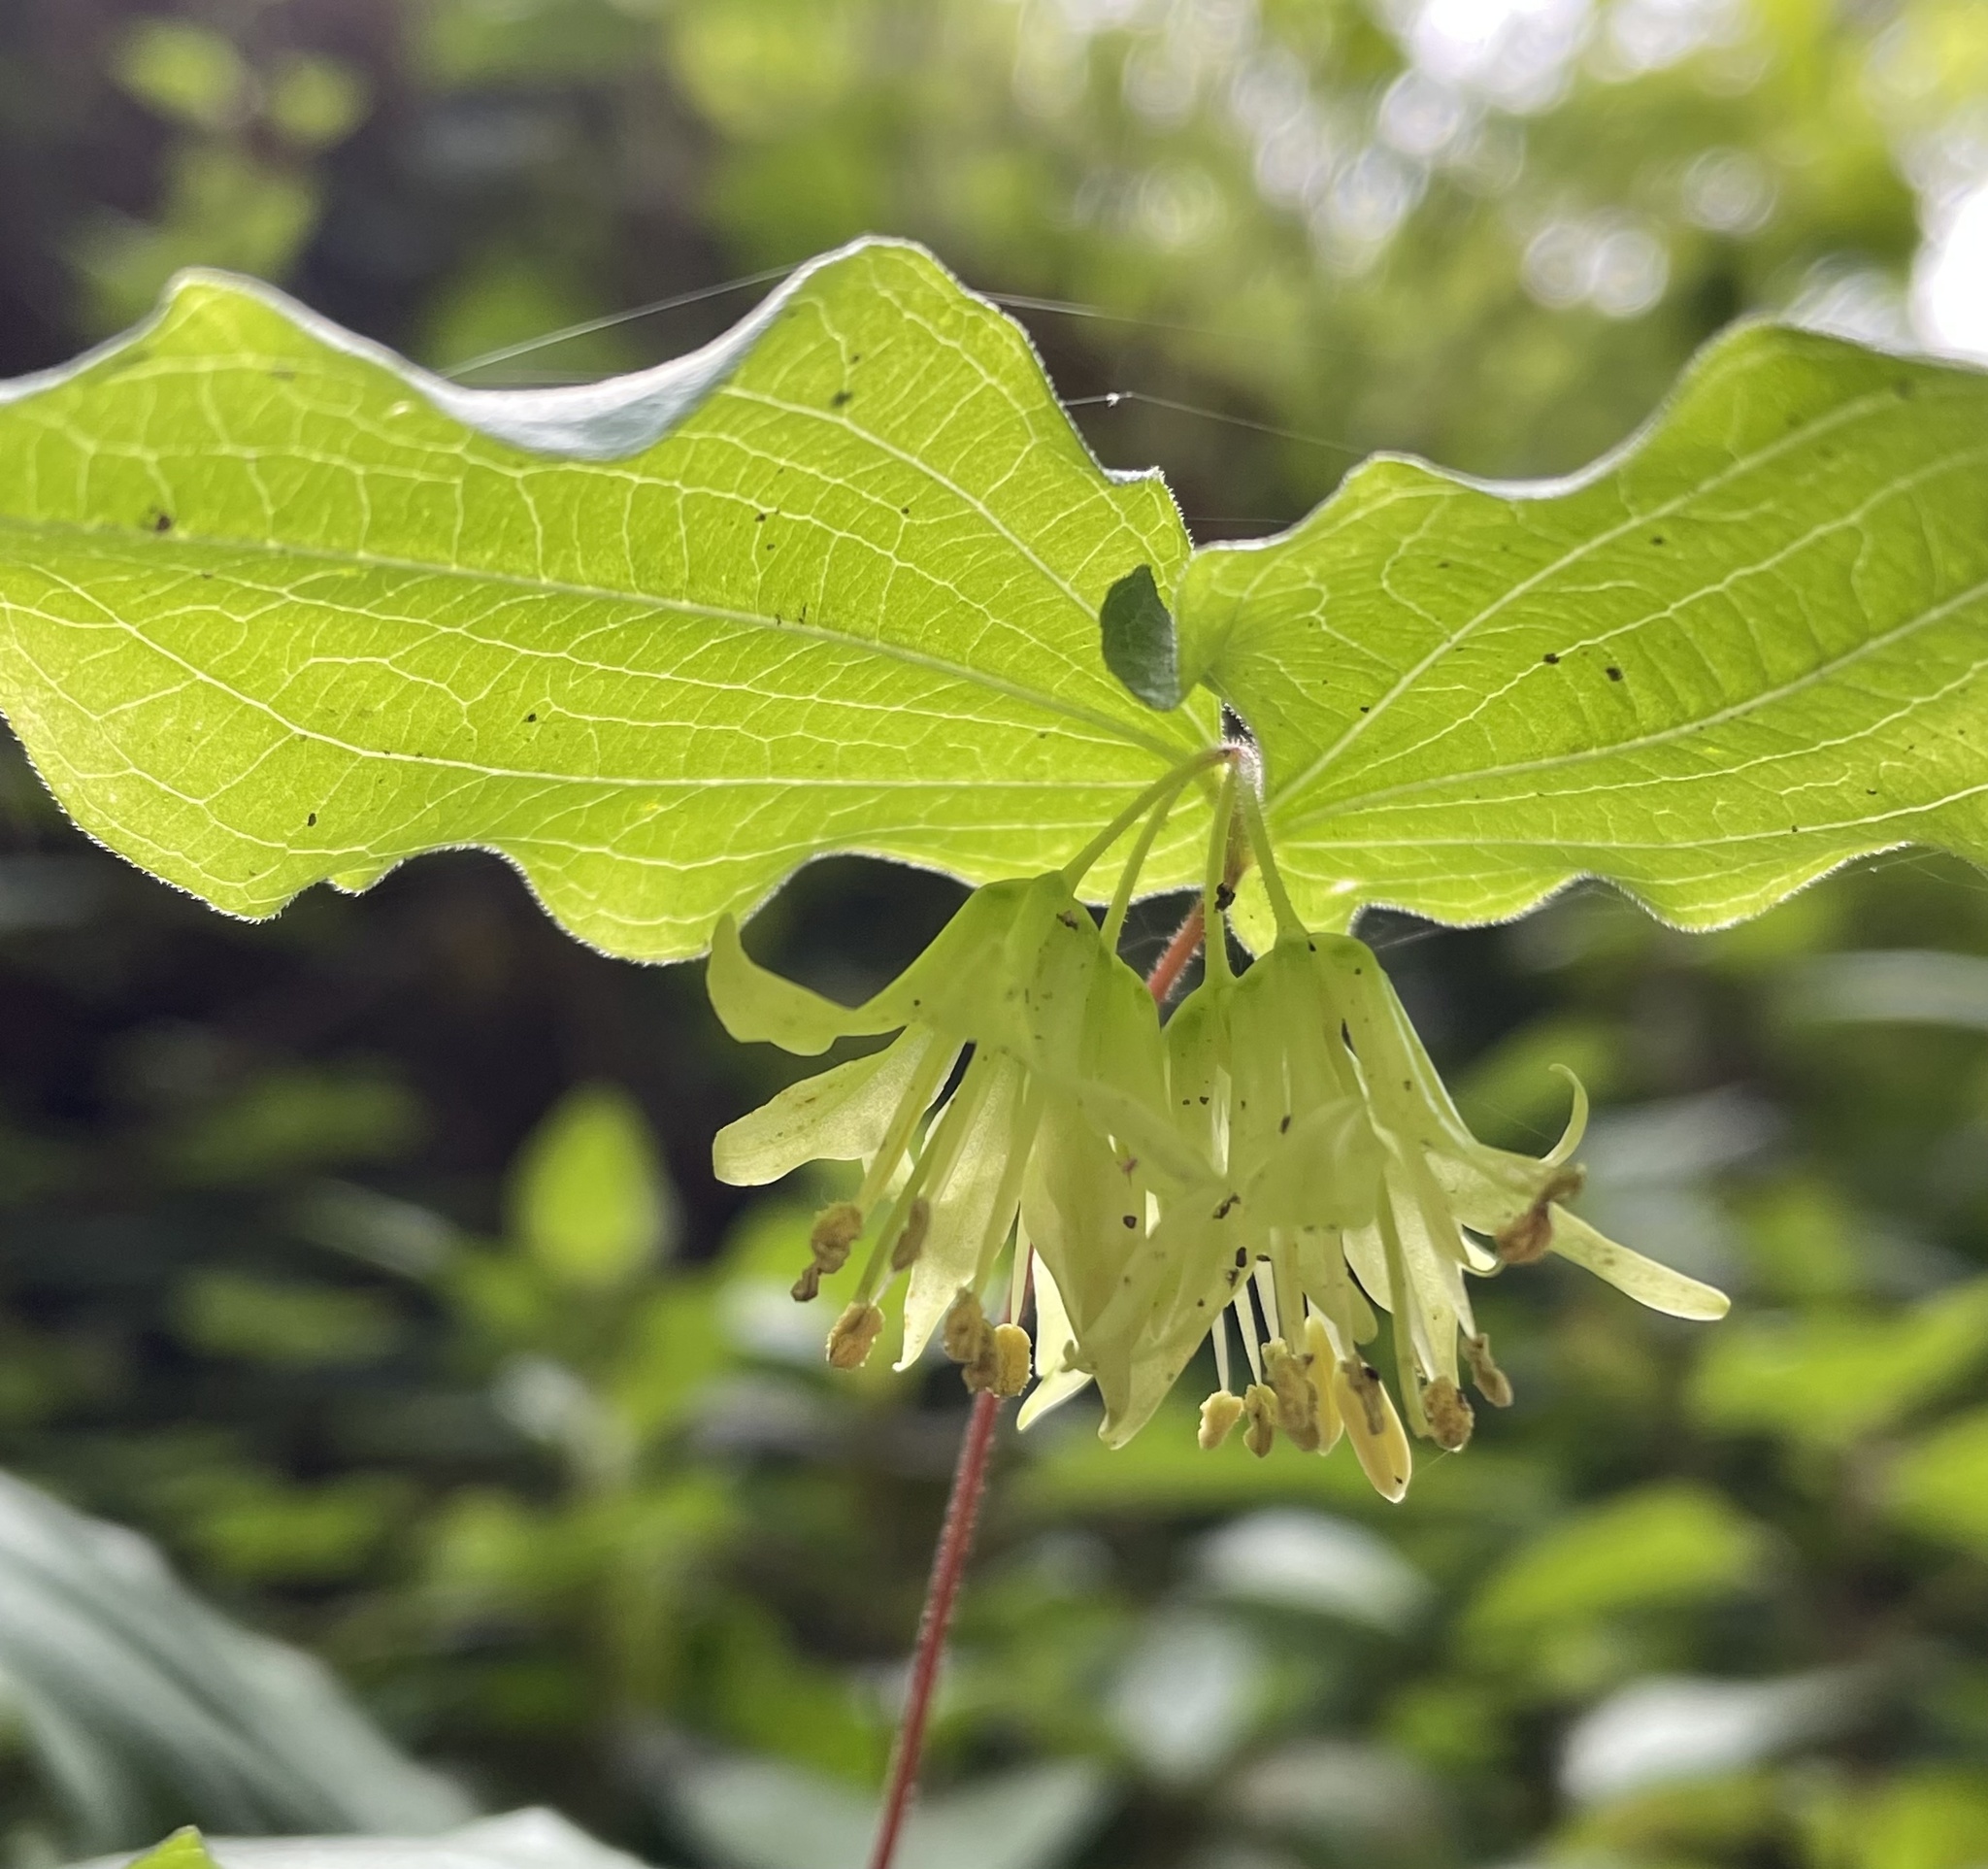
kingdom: Plantae
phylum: Tracheophyta
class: Liliopsida
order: Liliales
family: Liliaceae
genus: Prosartes
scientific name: Prosartes hookeri
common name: Fairy-bells
